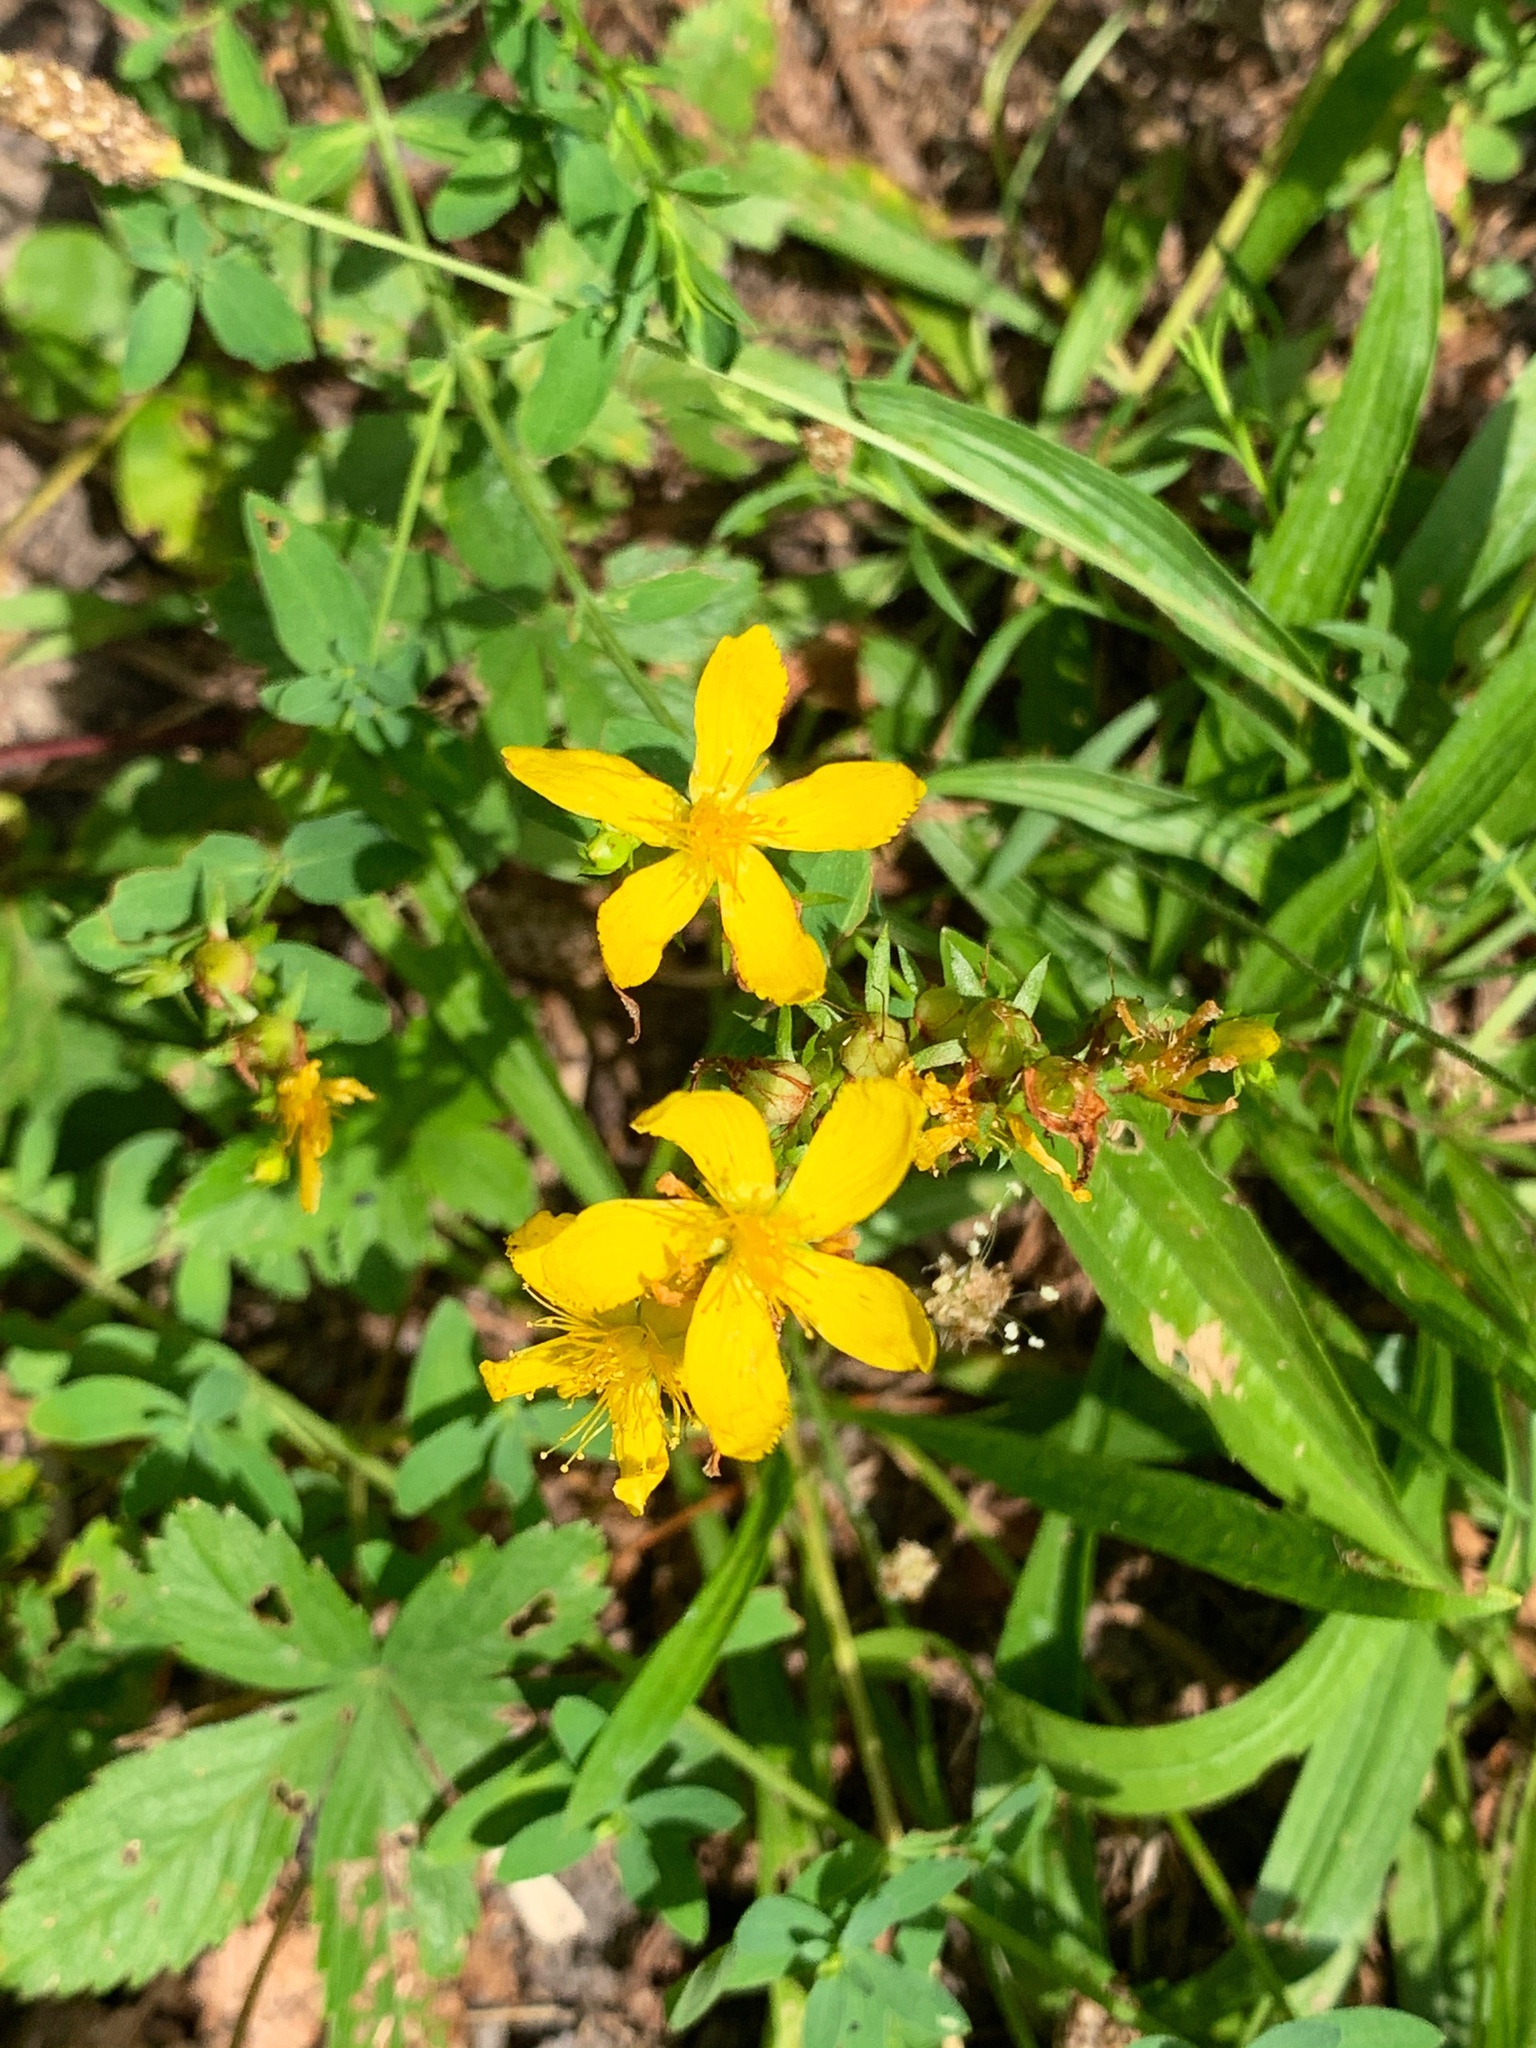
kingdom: Plantae
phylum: Tracheophyta
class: Magnoliopsida
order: Malpighiales
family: Hypericaceae
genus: Hypericum
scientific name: Hypericum perforatum
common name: Common st. johnswort
